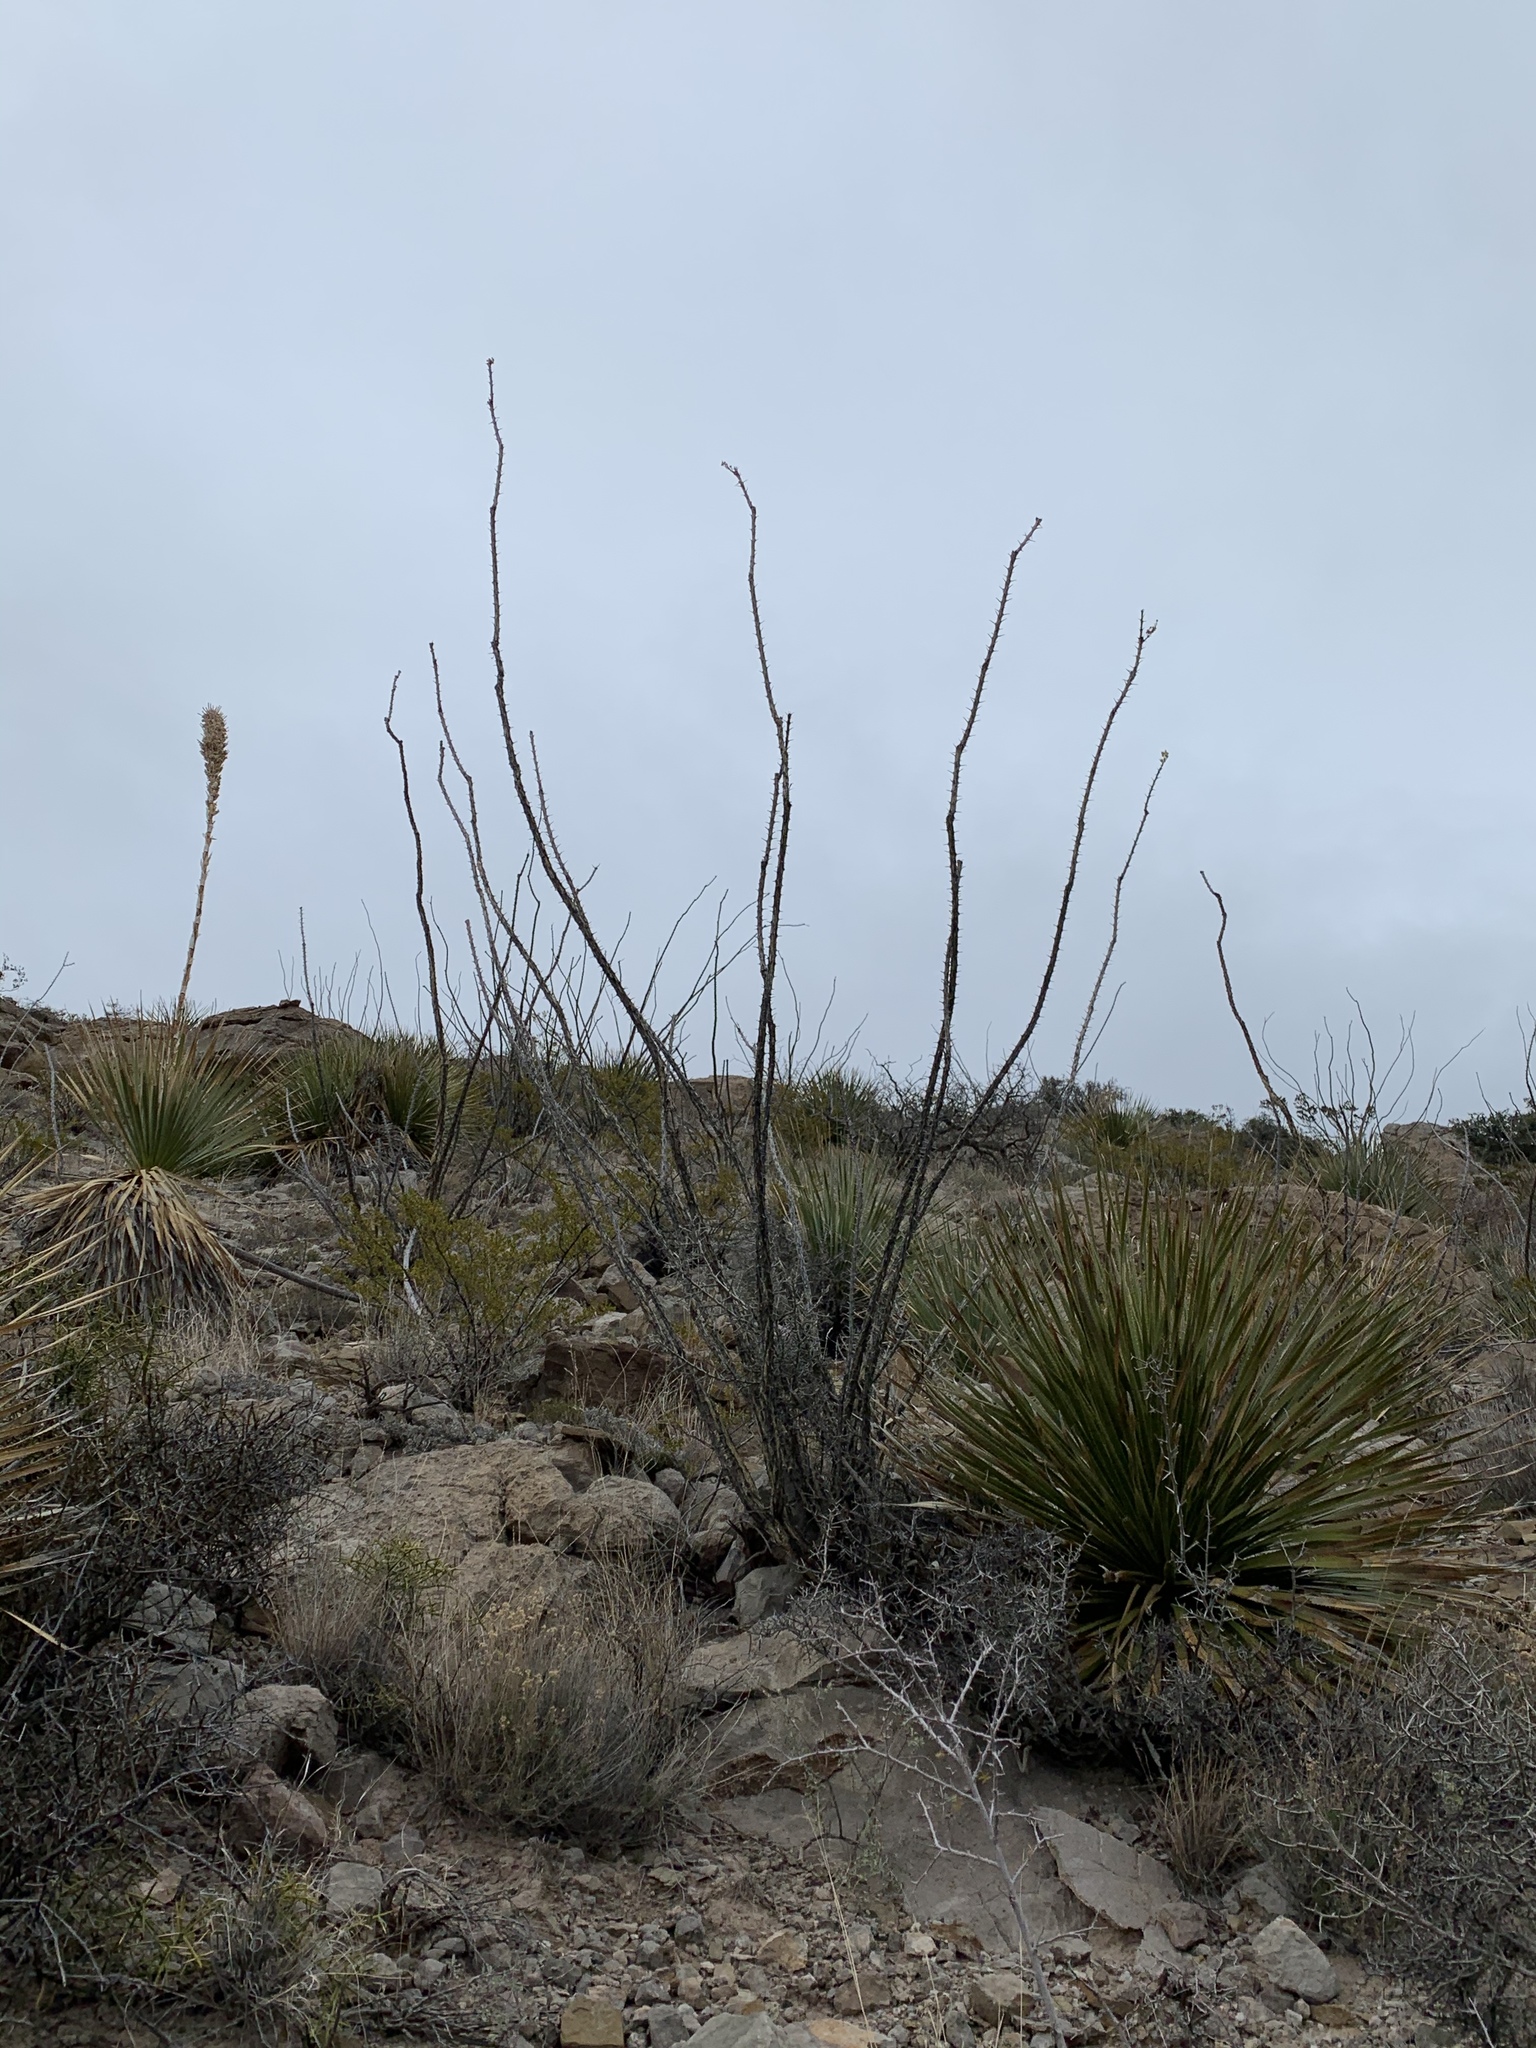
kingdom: Plantae
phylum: Tracheophyta
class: Magnoliopsida
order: Ericales
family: Fouquieriaceae
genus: Fouquieria
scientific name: Fouquieria splendens
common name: Vine-cactus
